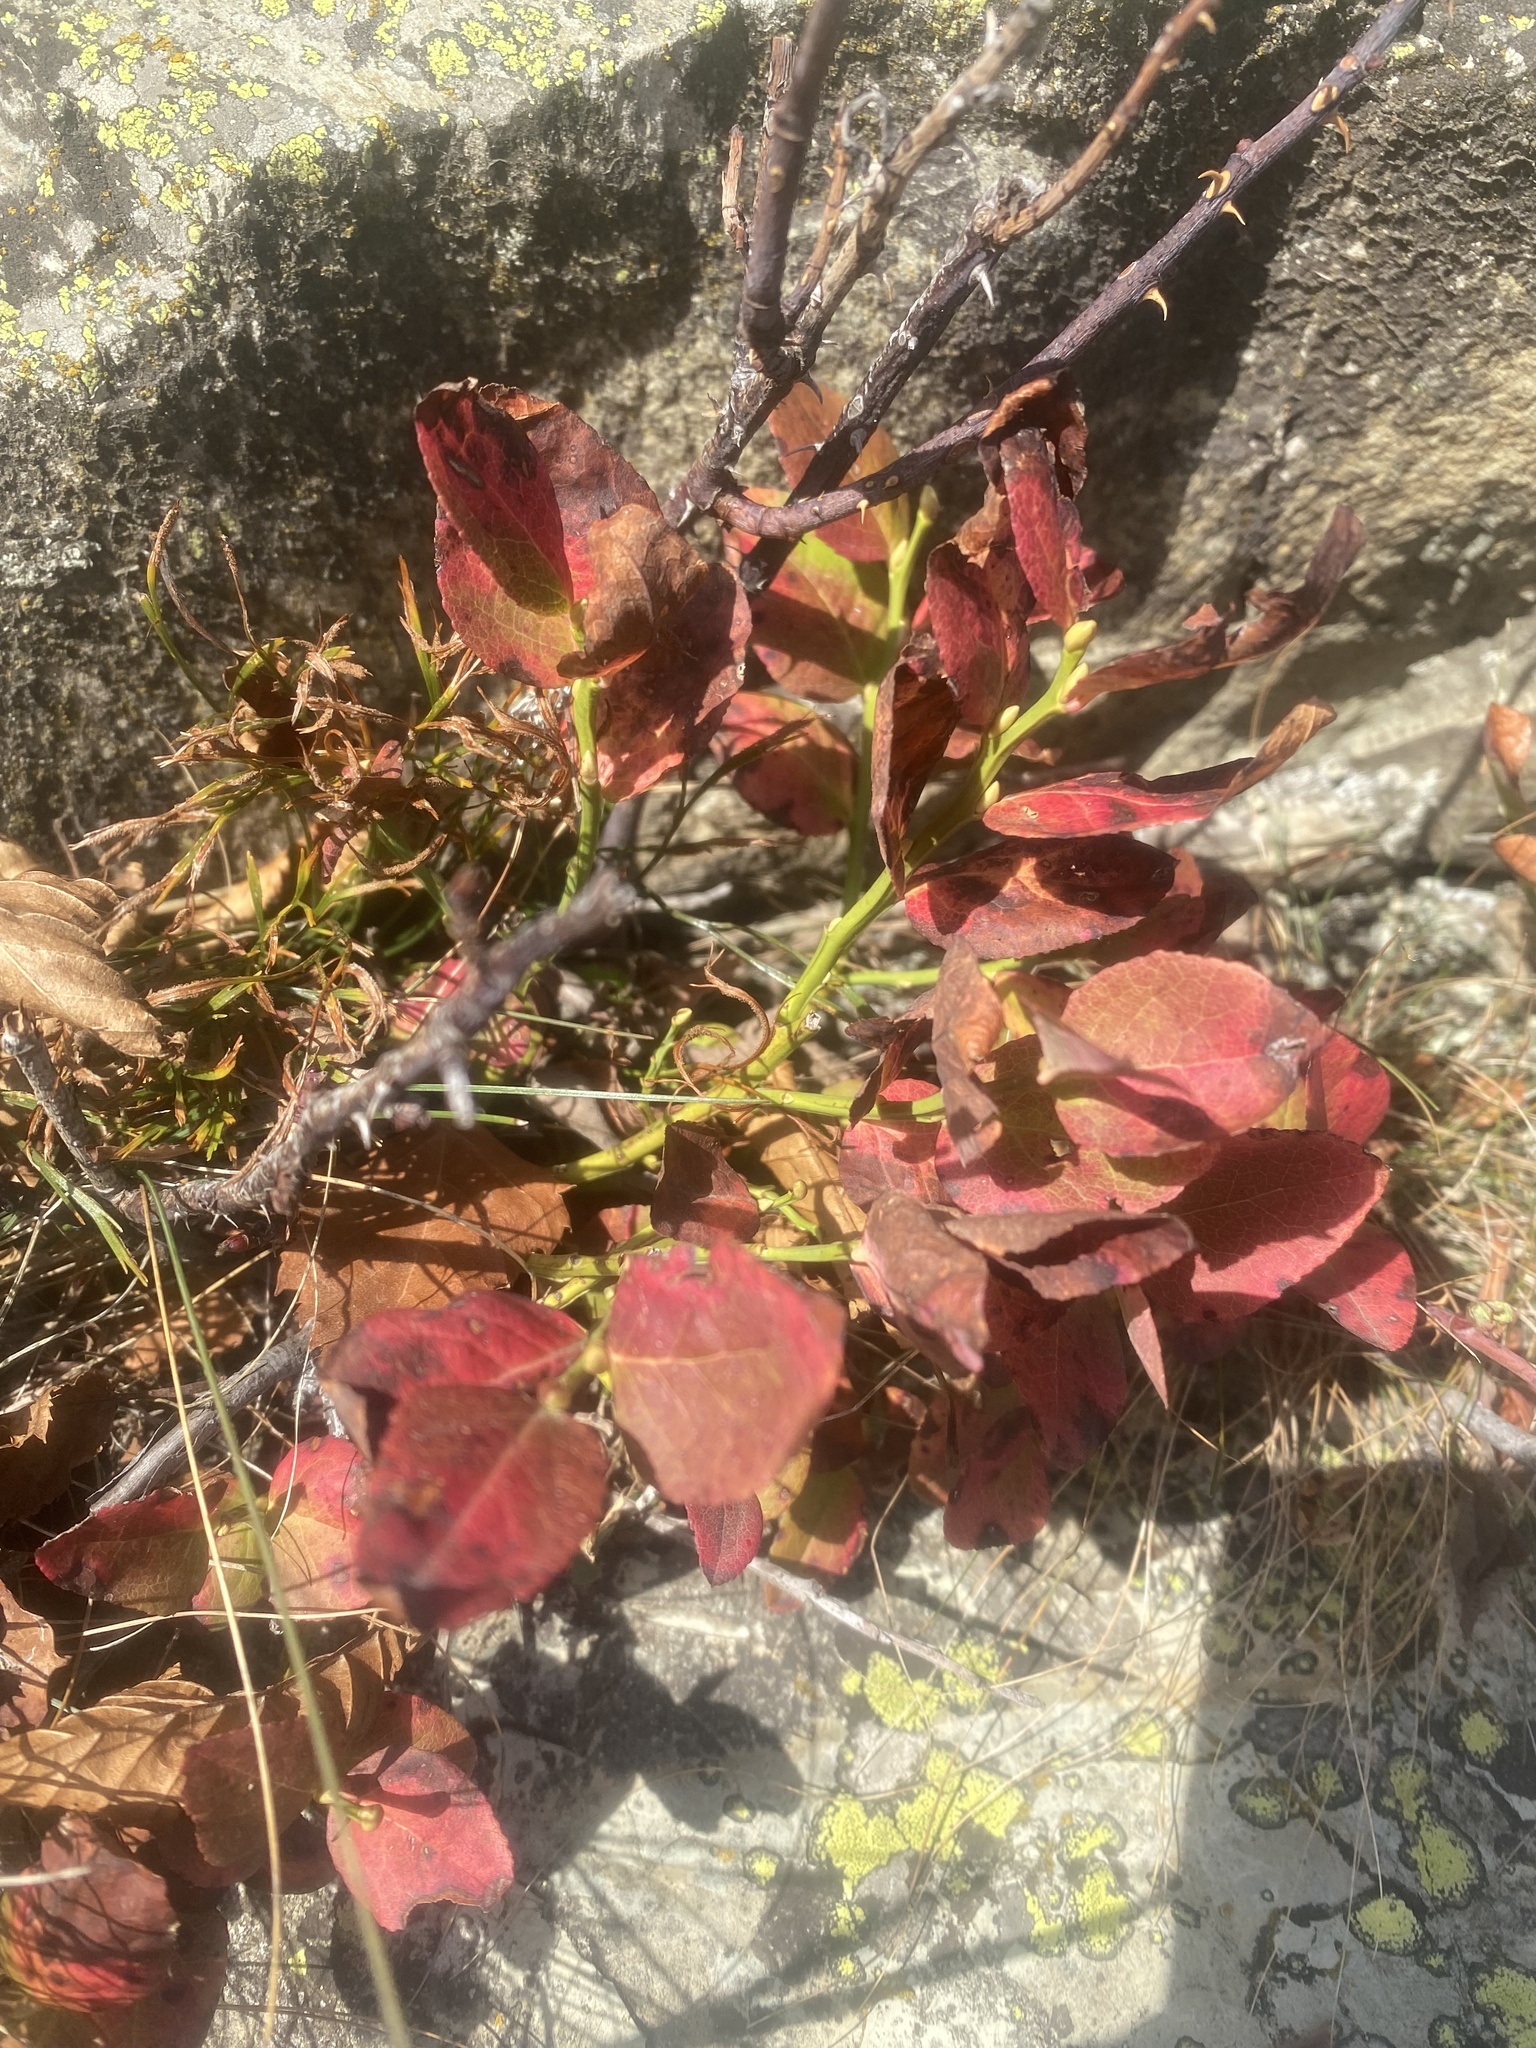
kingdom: Plantae
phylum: Tracheophyta
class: Magnoliopsida
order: Ericales
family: Ericaceae
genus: Vaccinium
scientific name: Vaccinium myrtillus
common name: Bilberry
